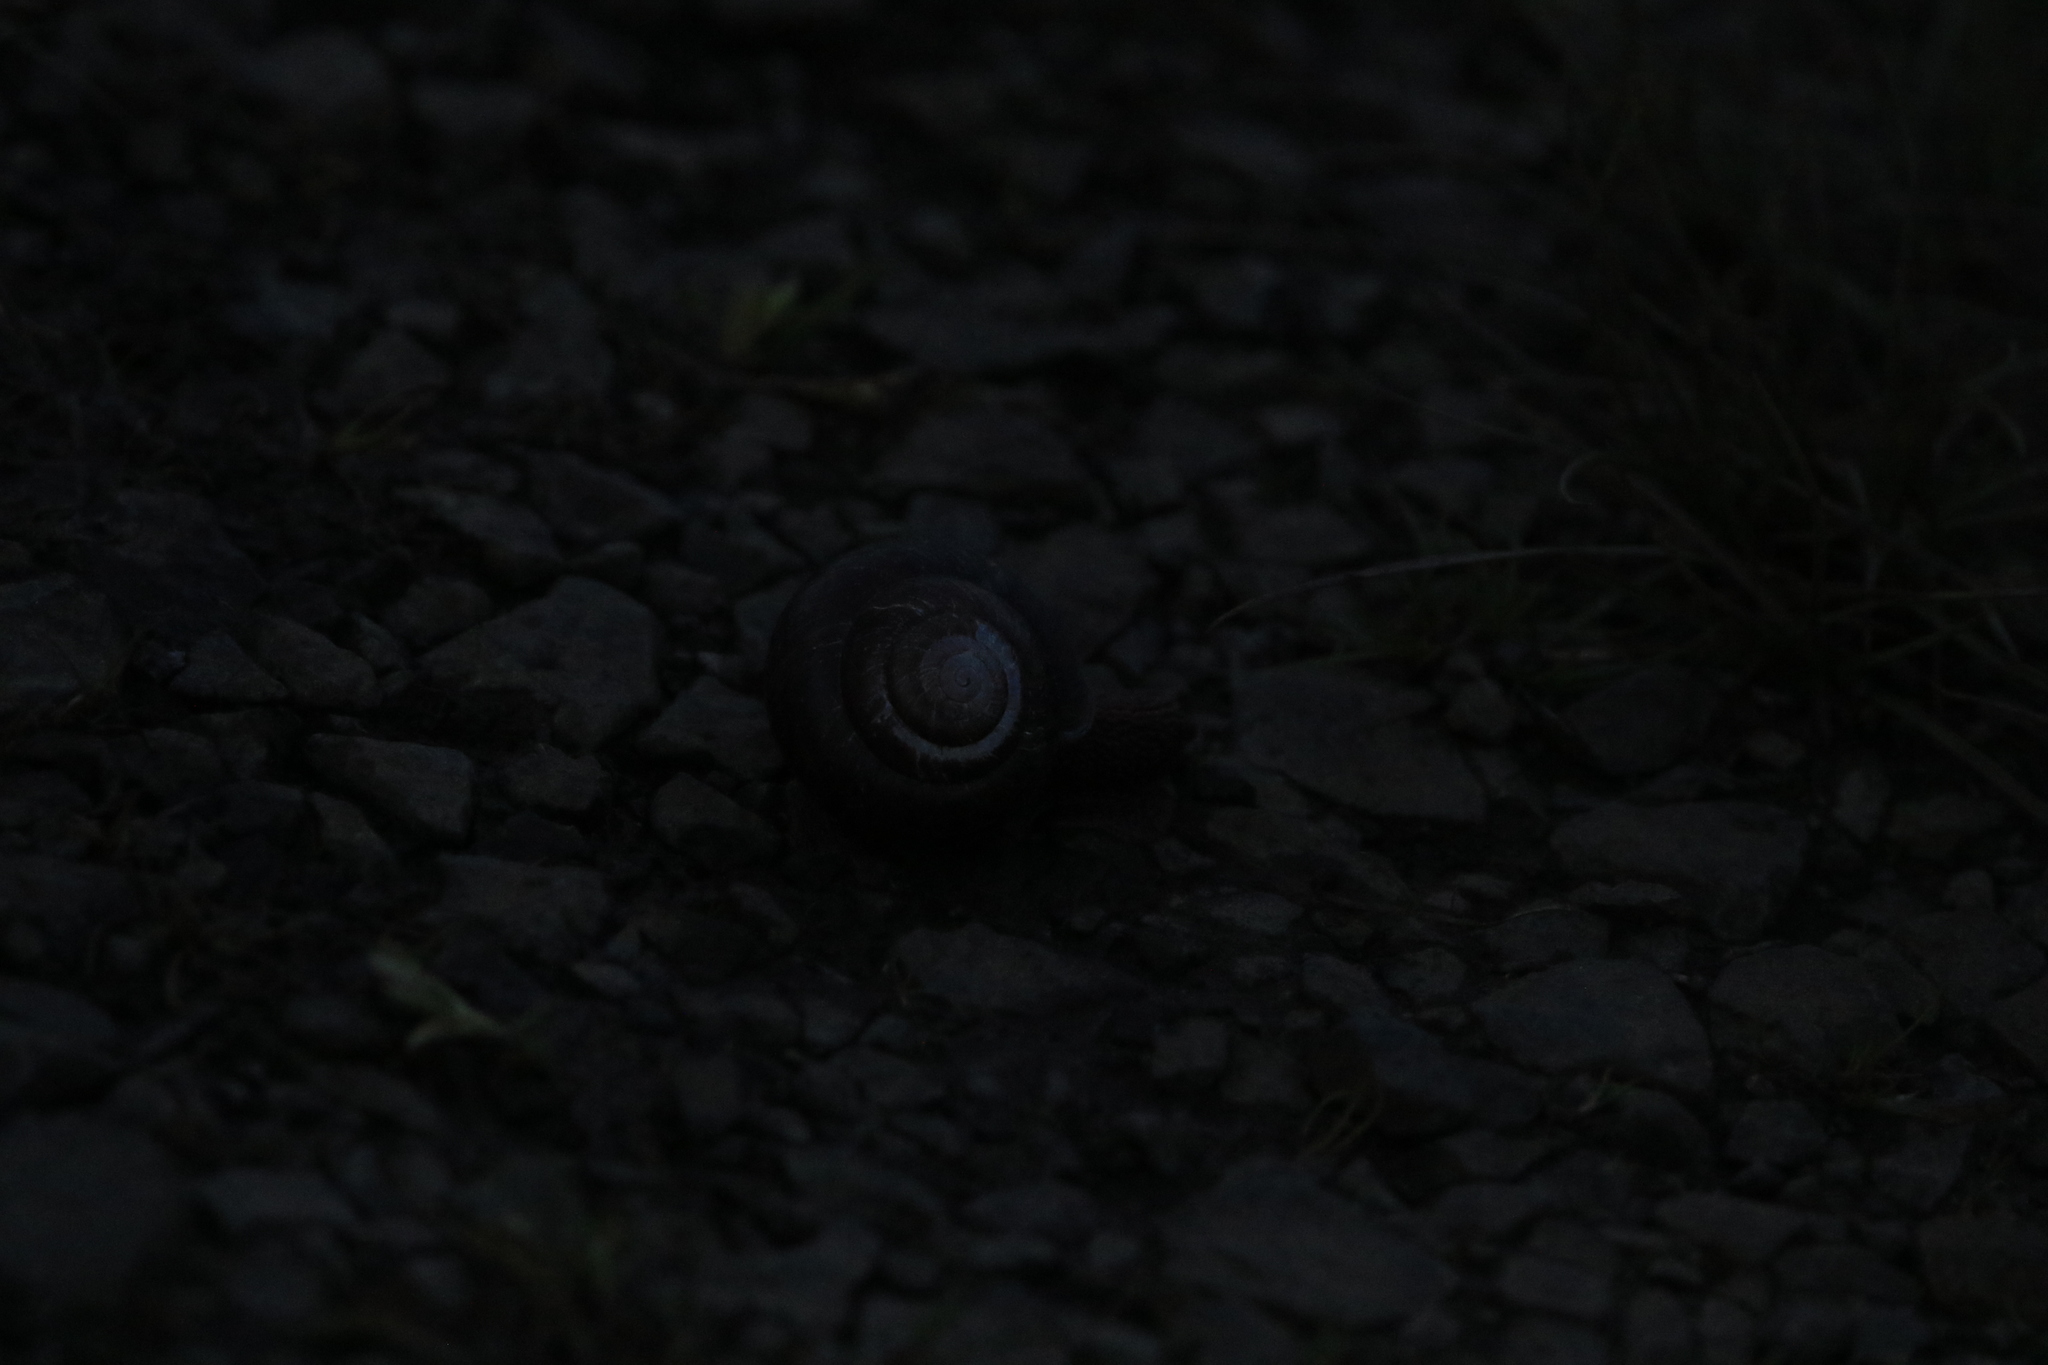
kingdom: Animalia
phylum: Mollusca
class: Gastropoda
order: Stylommatophora
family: Xanthonychidae
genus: Monadenia
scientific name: Monadenia fidelis
